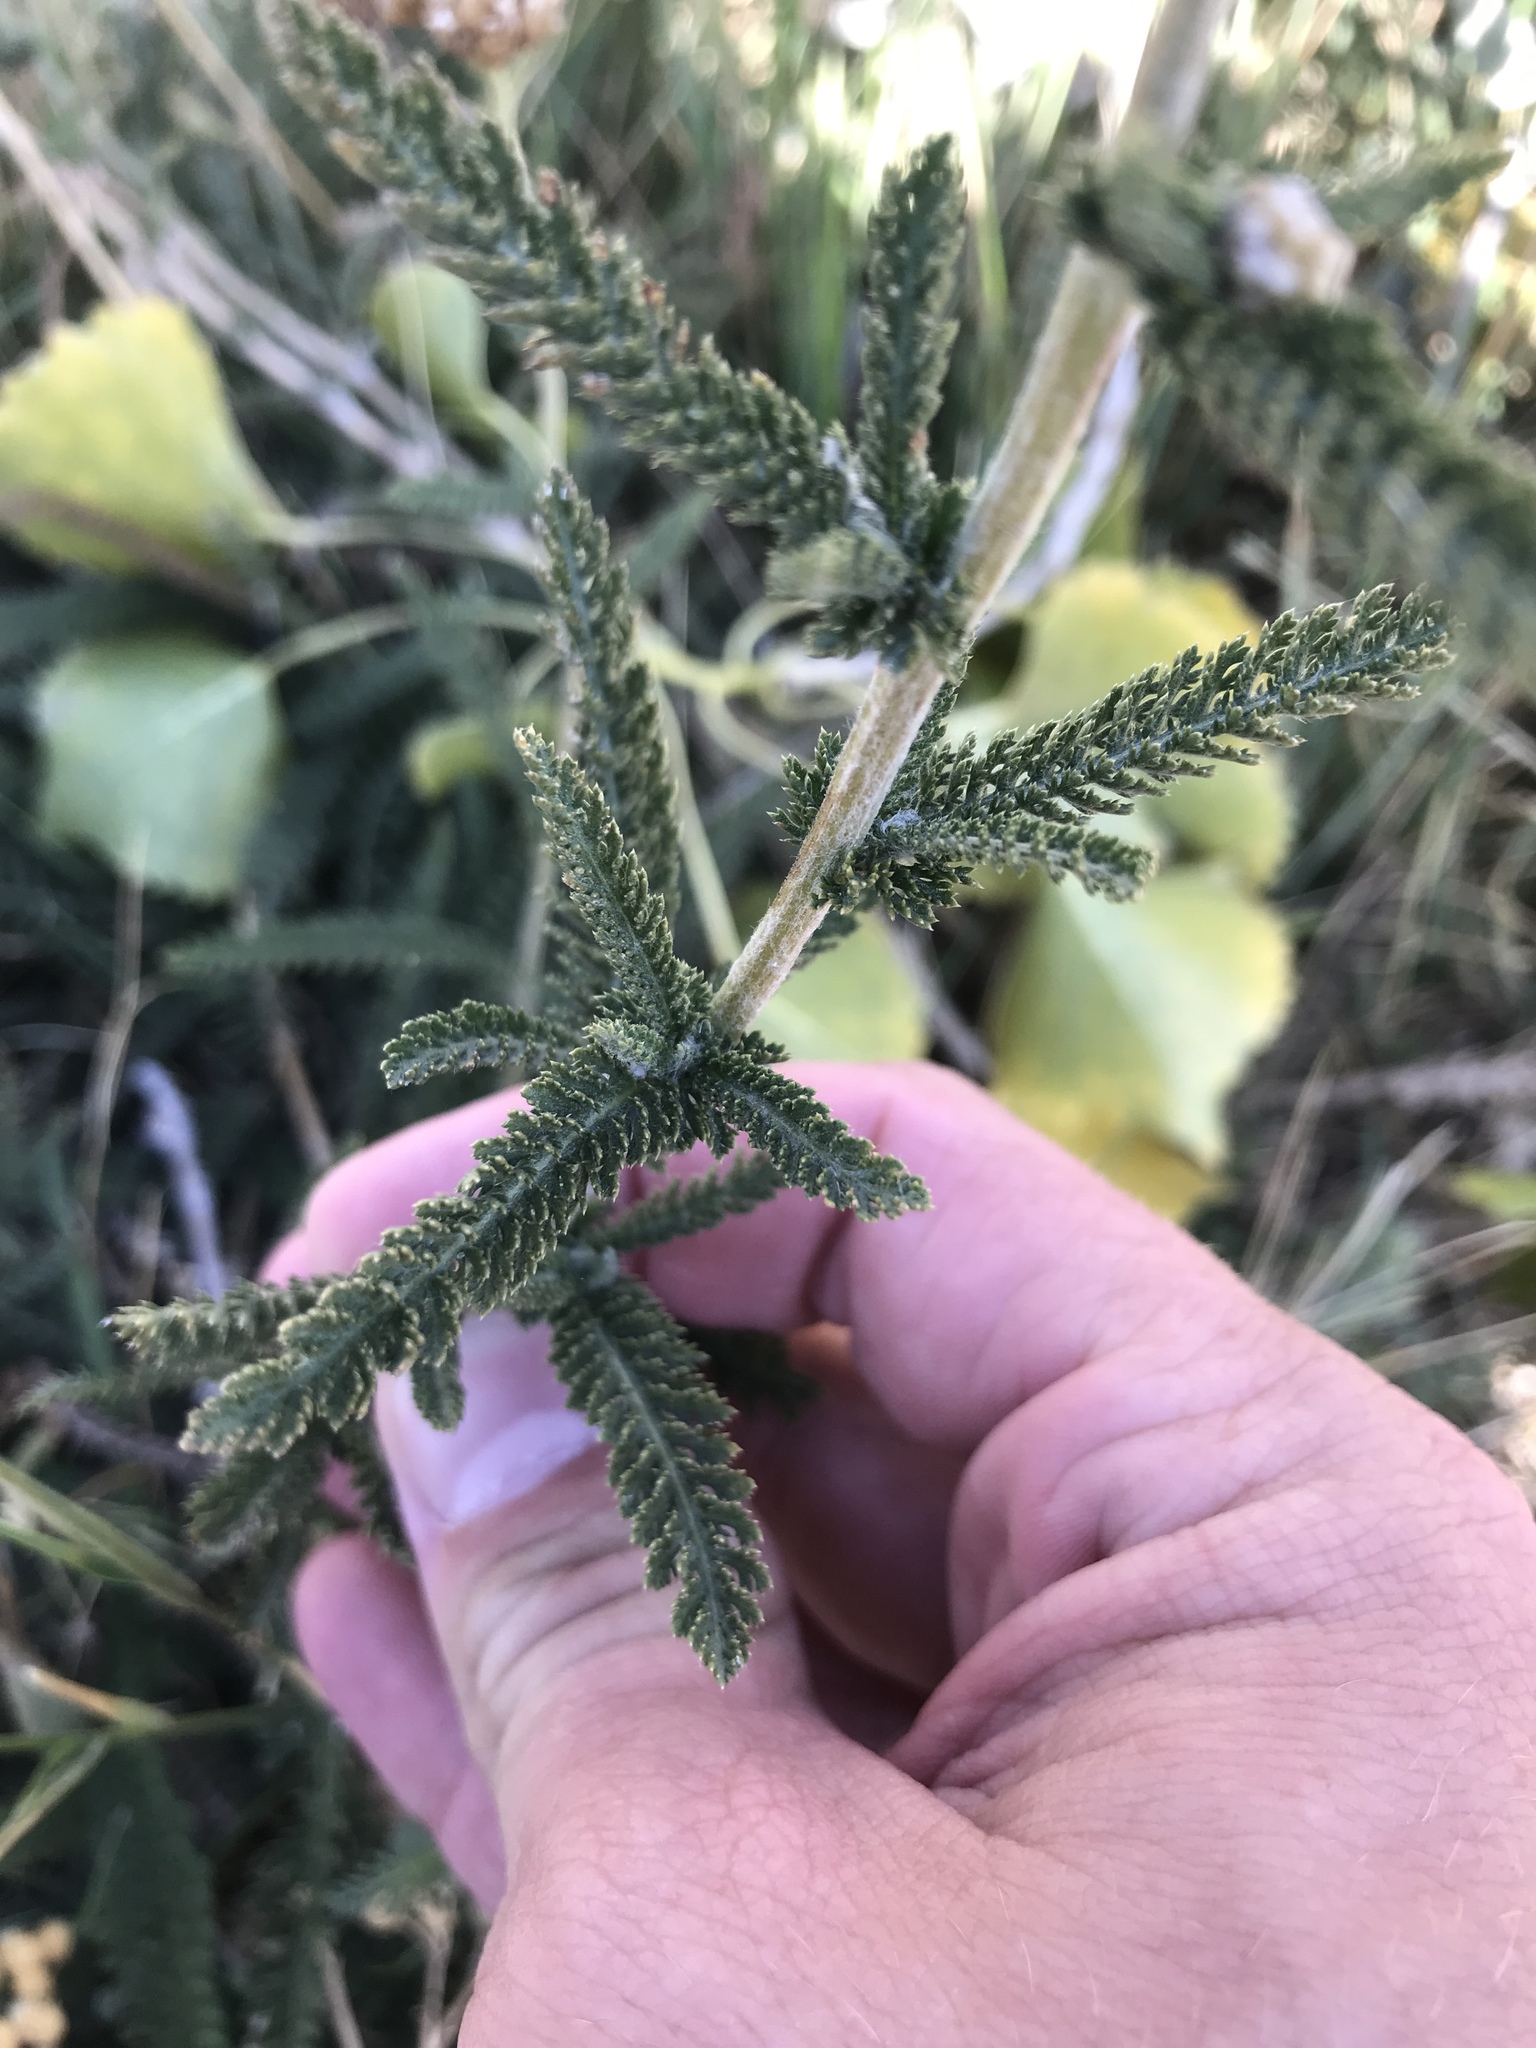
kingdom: Plantae
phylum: Tracheophyta
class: Magnoliopsida
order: Asterales
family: Asteraceae
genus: Achillea
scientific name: Achillea millefolium
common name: Yarrow
